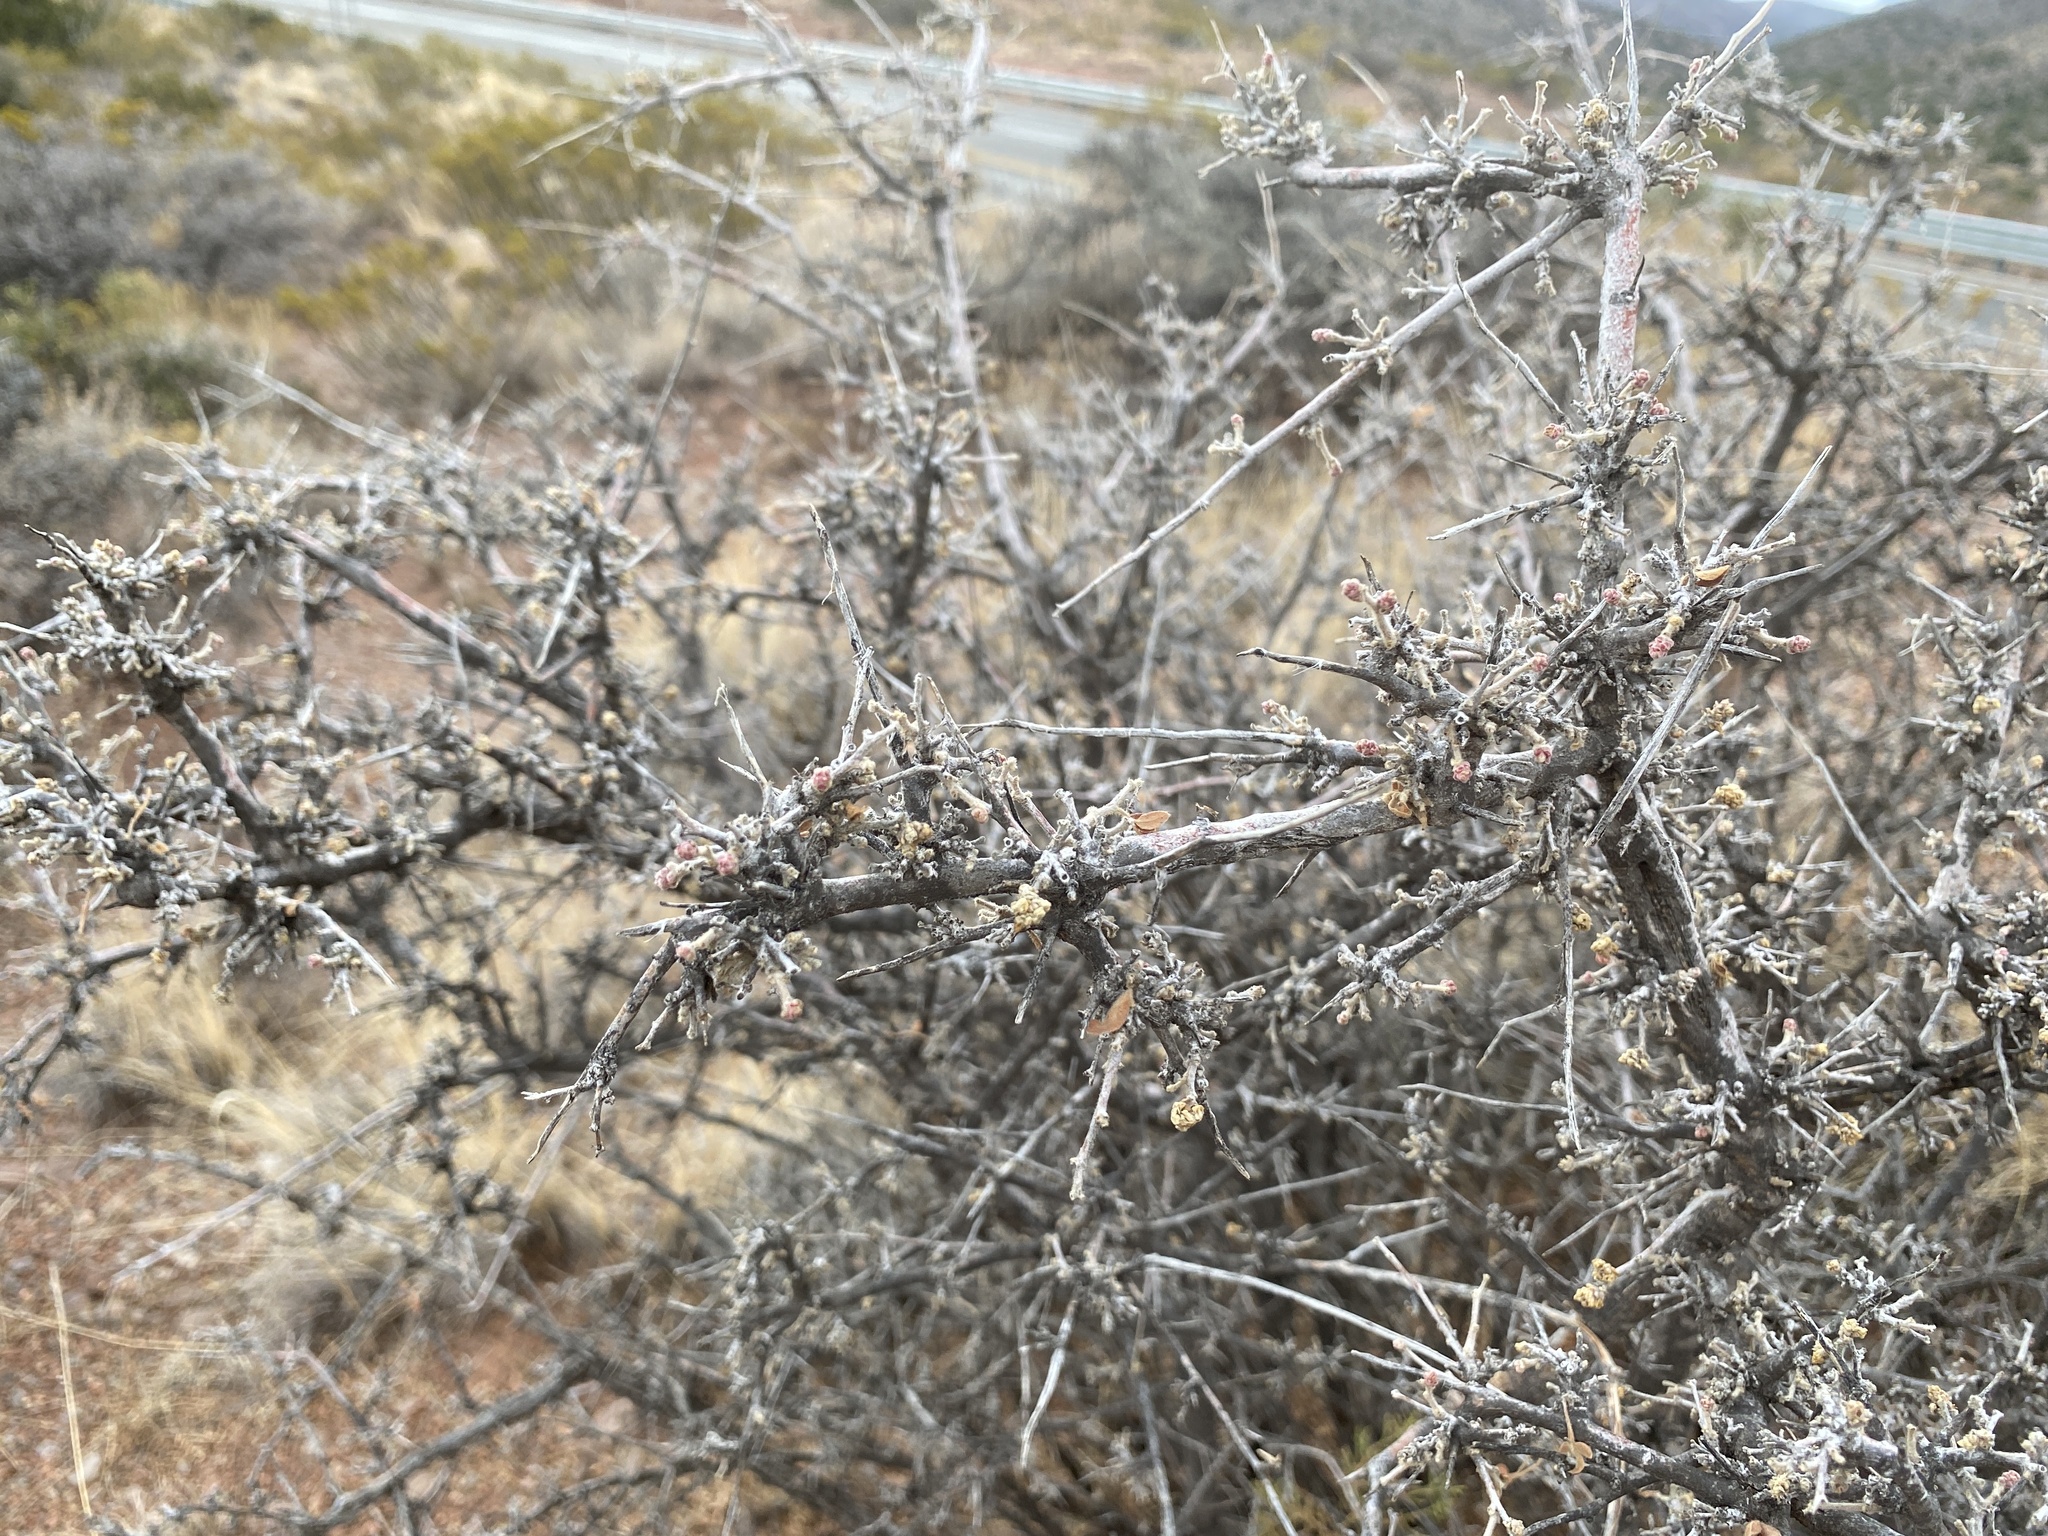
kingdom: Plantae
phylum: Tracheophyta
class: Magnoliopsida
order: Sapindales
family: Anacardiaceae
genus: Rhus
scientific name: Rhus microphylla
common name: Desert sumac
